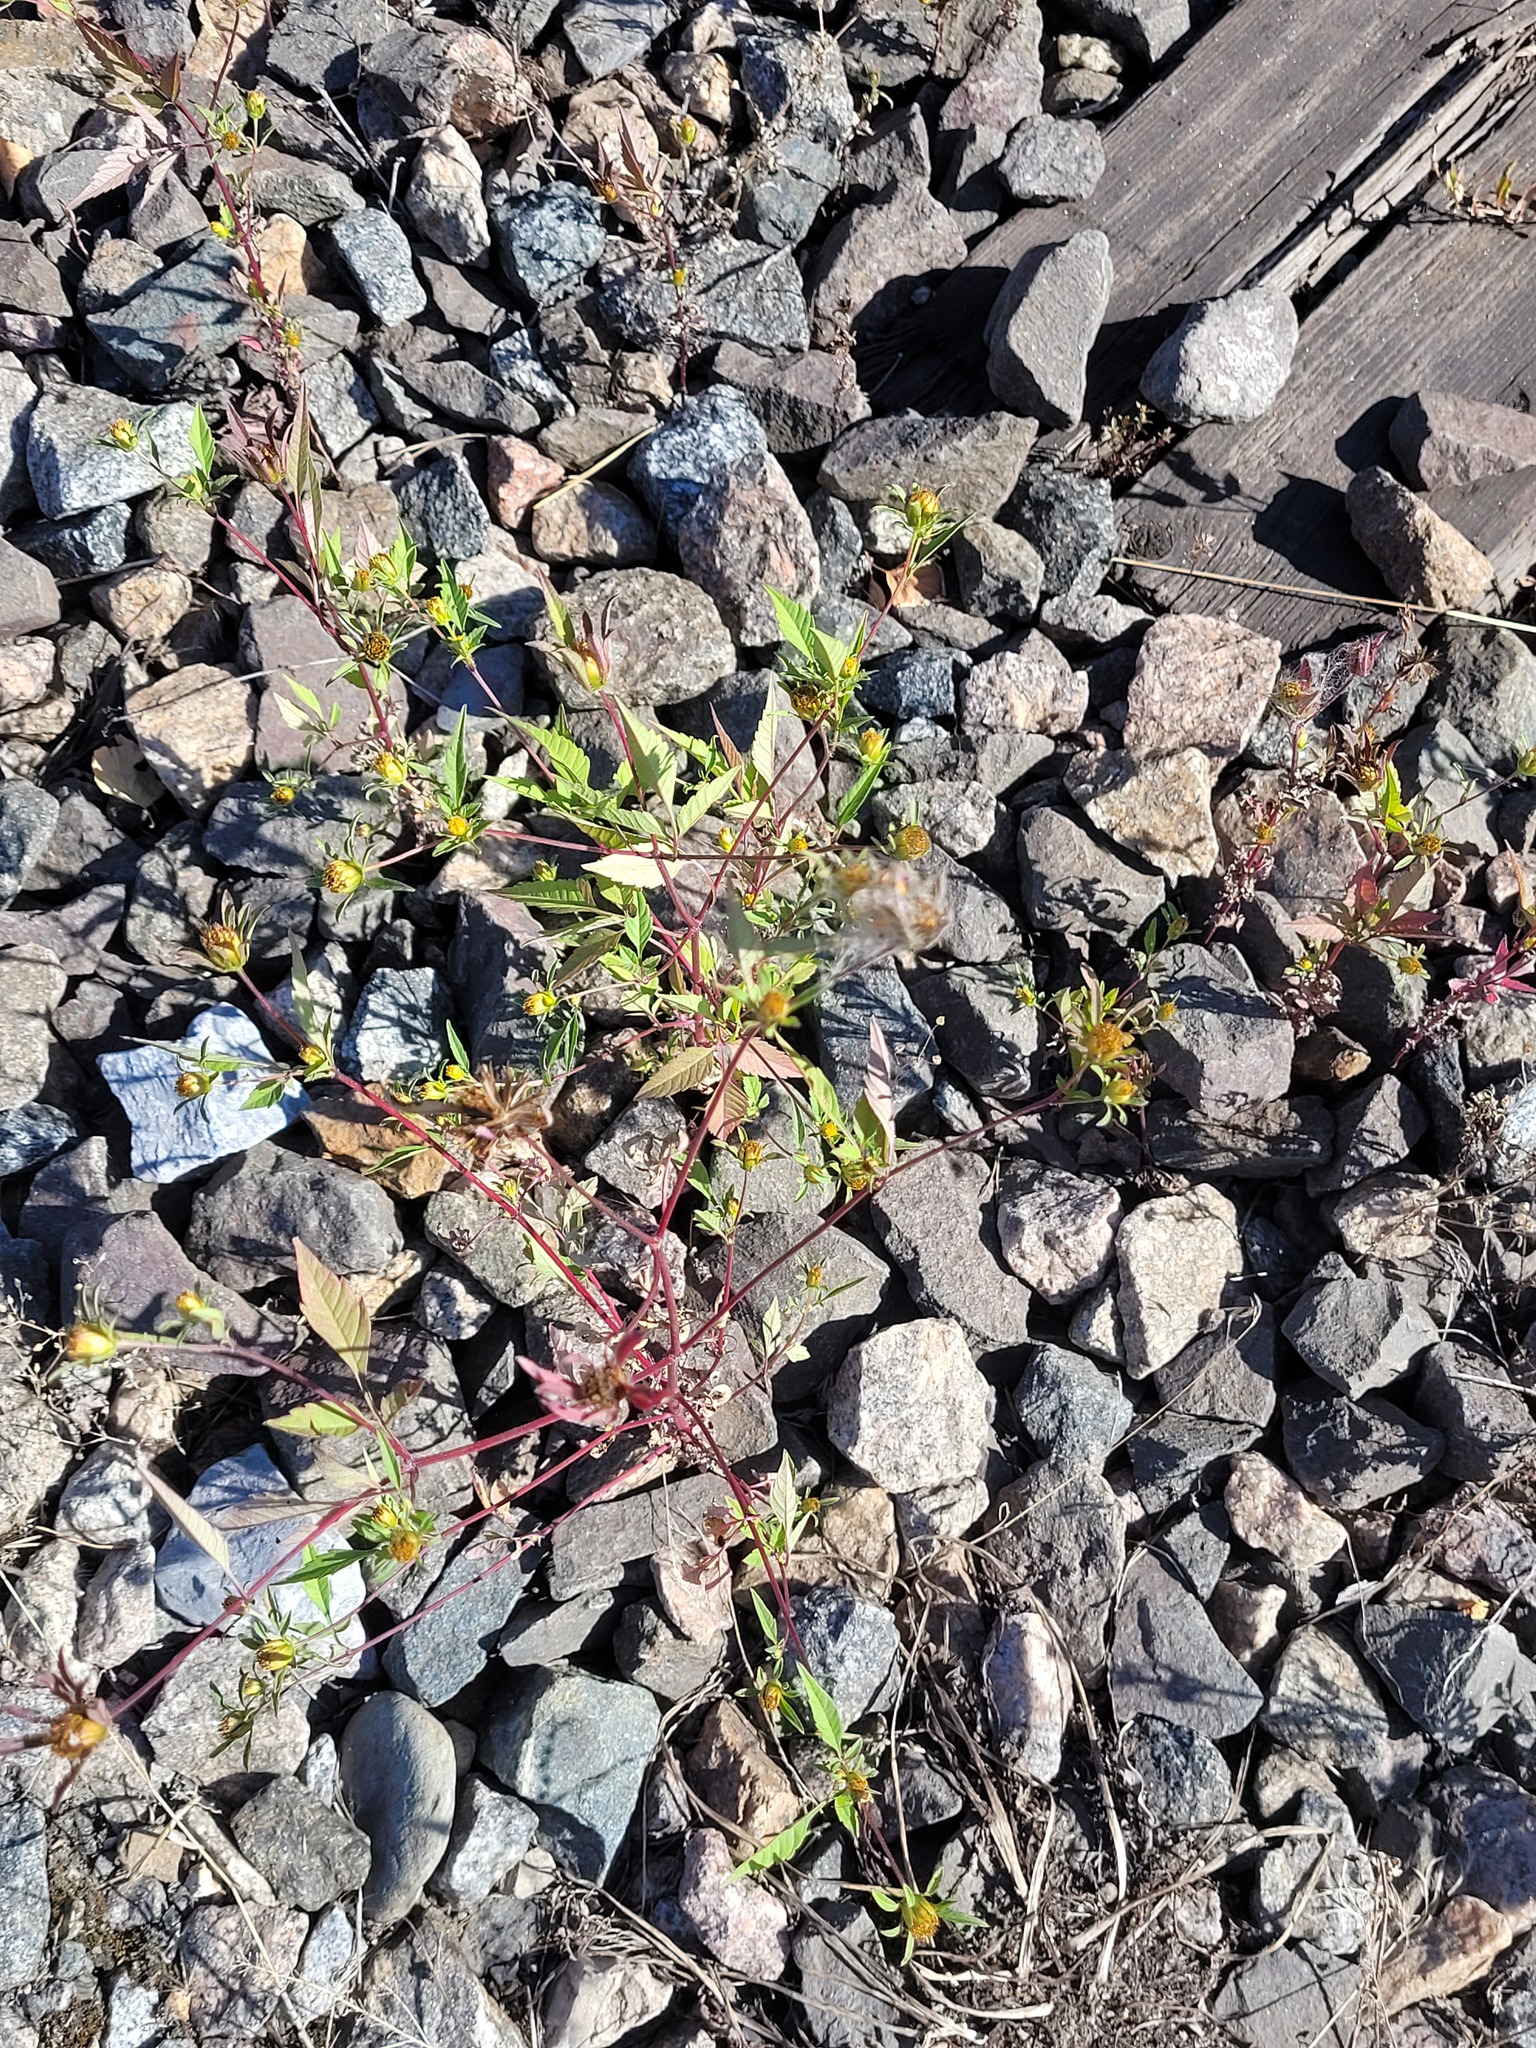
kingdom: Plantae
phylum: Tracheophyta
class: Magnoliopsida
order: Asterales
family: Asteraceae
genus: Bidens
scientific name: Bidens frondosa
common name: Beggarticks
